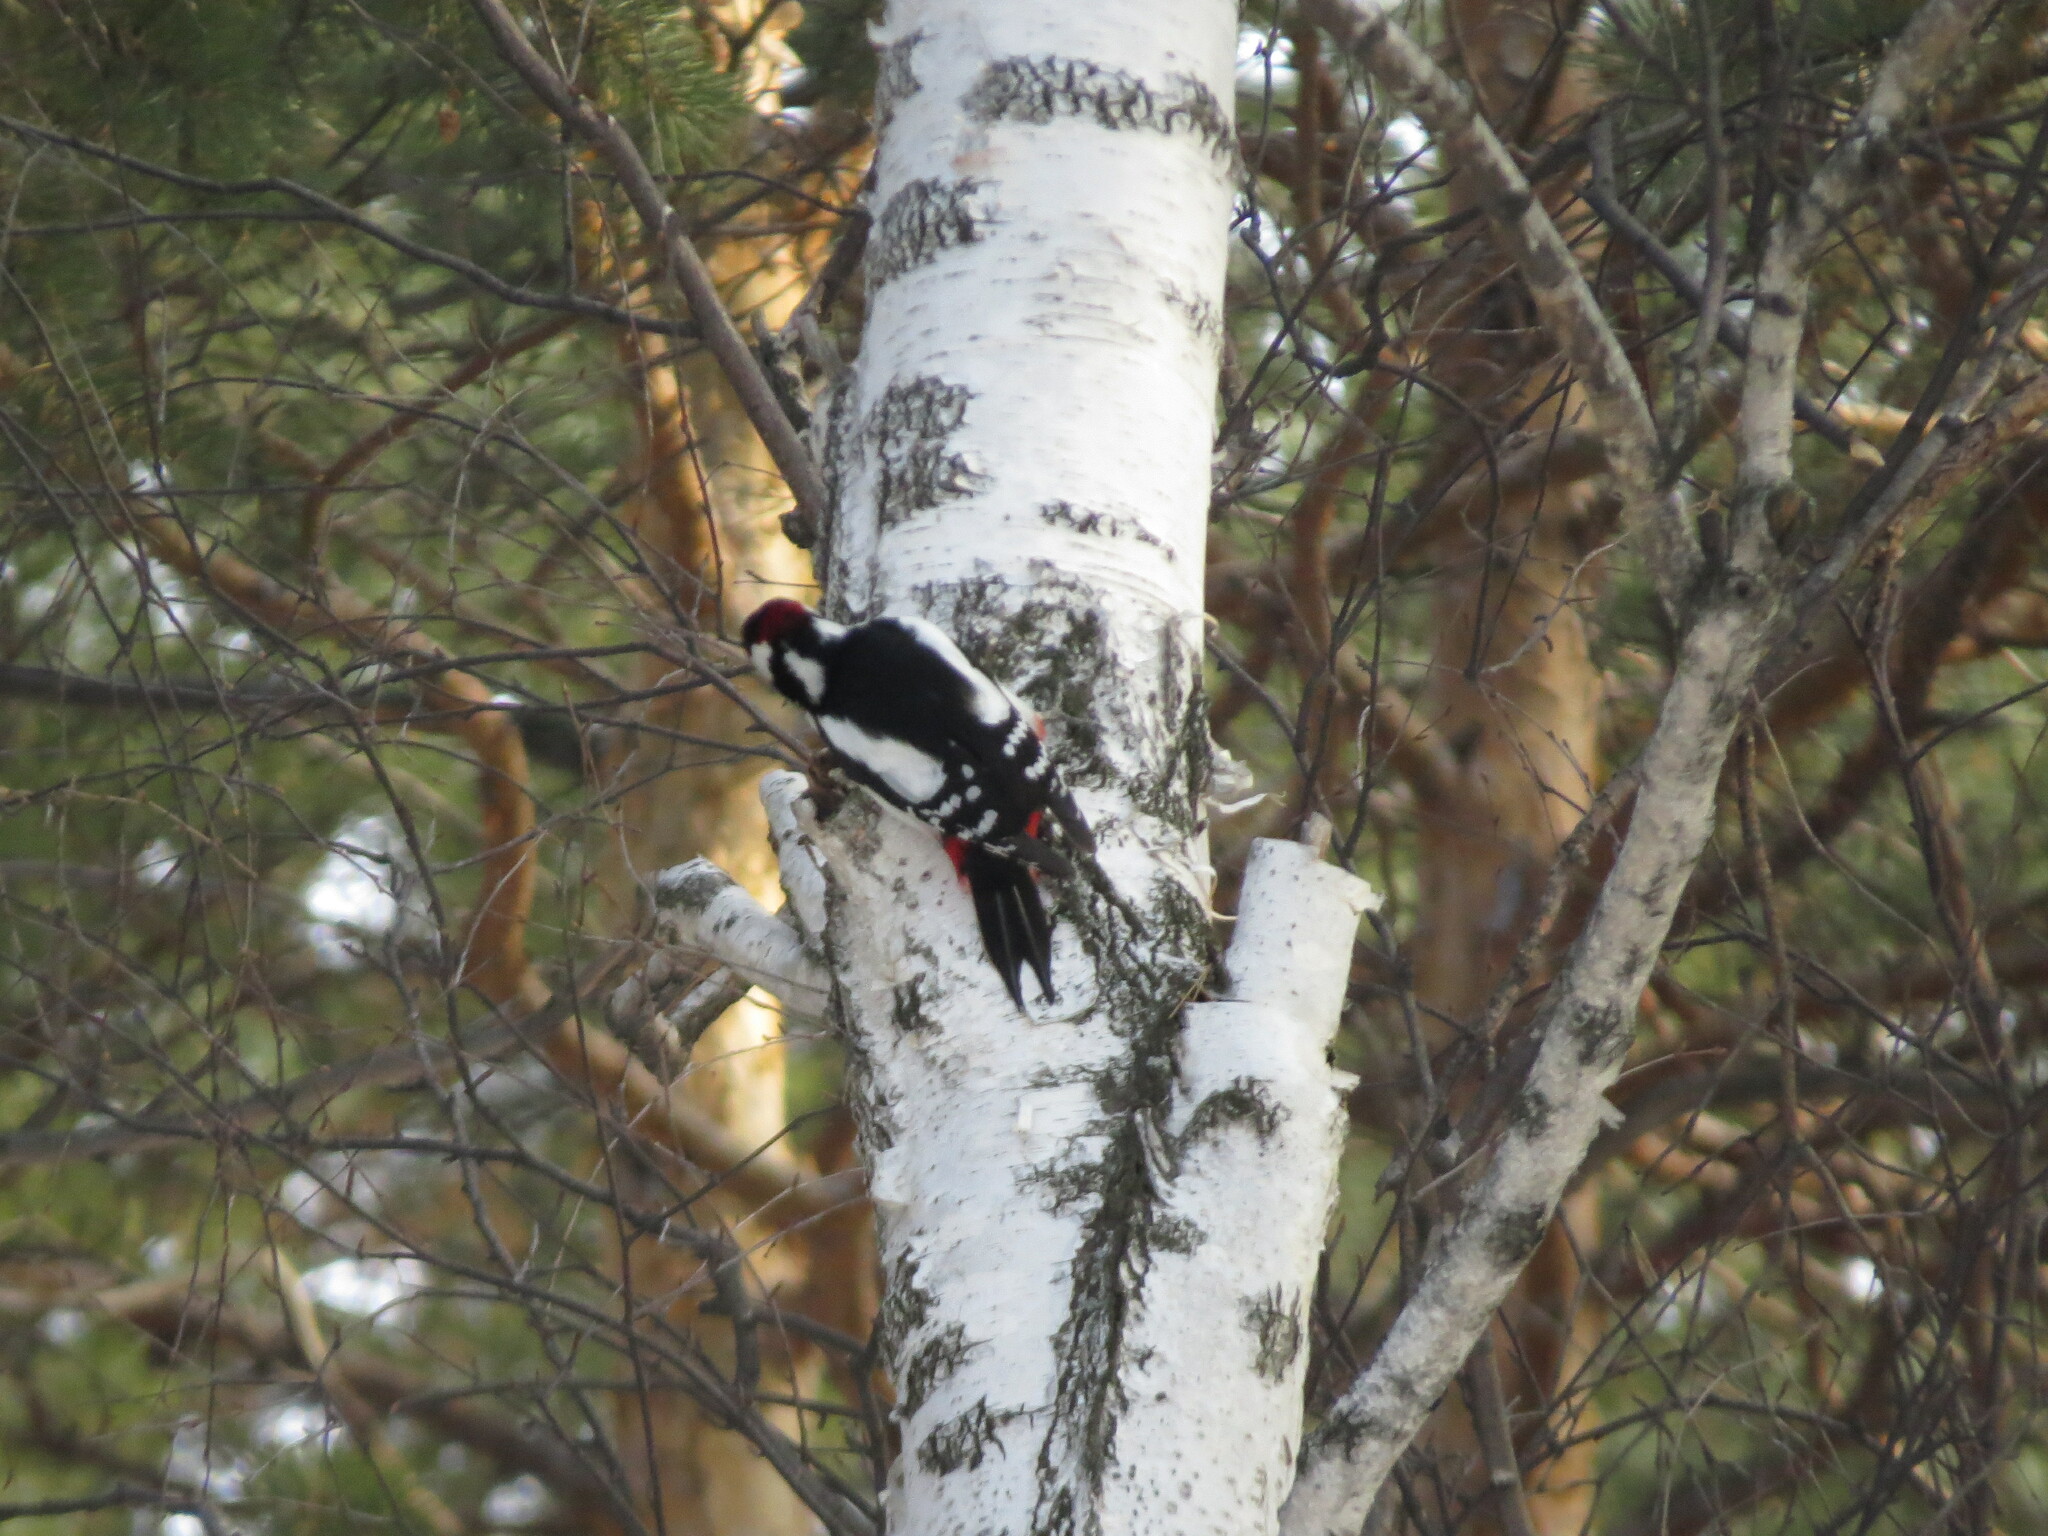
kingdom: Animalia
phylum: Chordata
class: Aves
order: Piciformes
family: Picidae
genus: Dendrocopos
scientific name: Dendrocopos major
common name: Great spotted woodpecker
